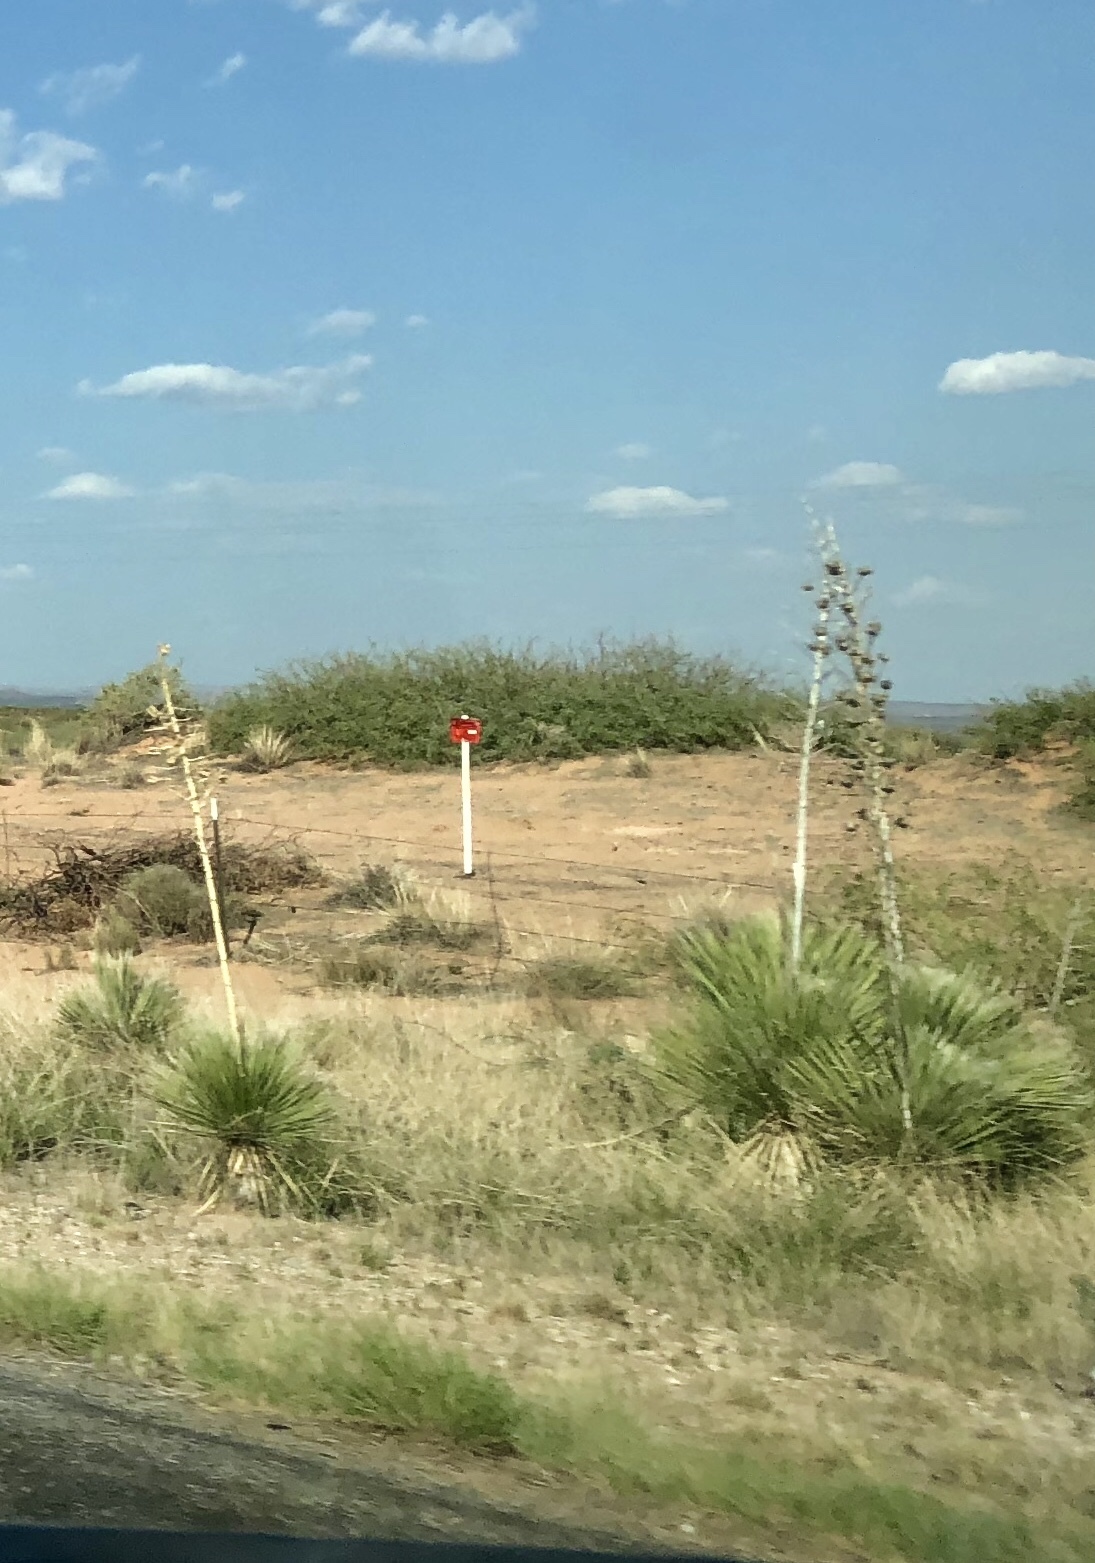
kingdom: Plantae
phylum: Tracheophyta
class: Liliopsida
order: Asparagales
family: Asparagaceae
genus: Yucca
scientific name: Yucca elata
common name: Palmella
